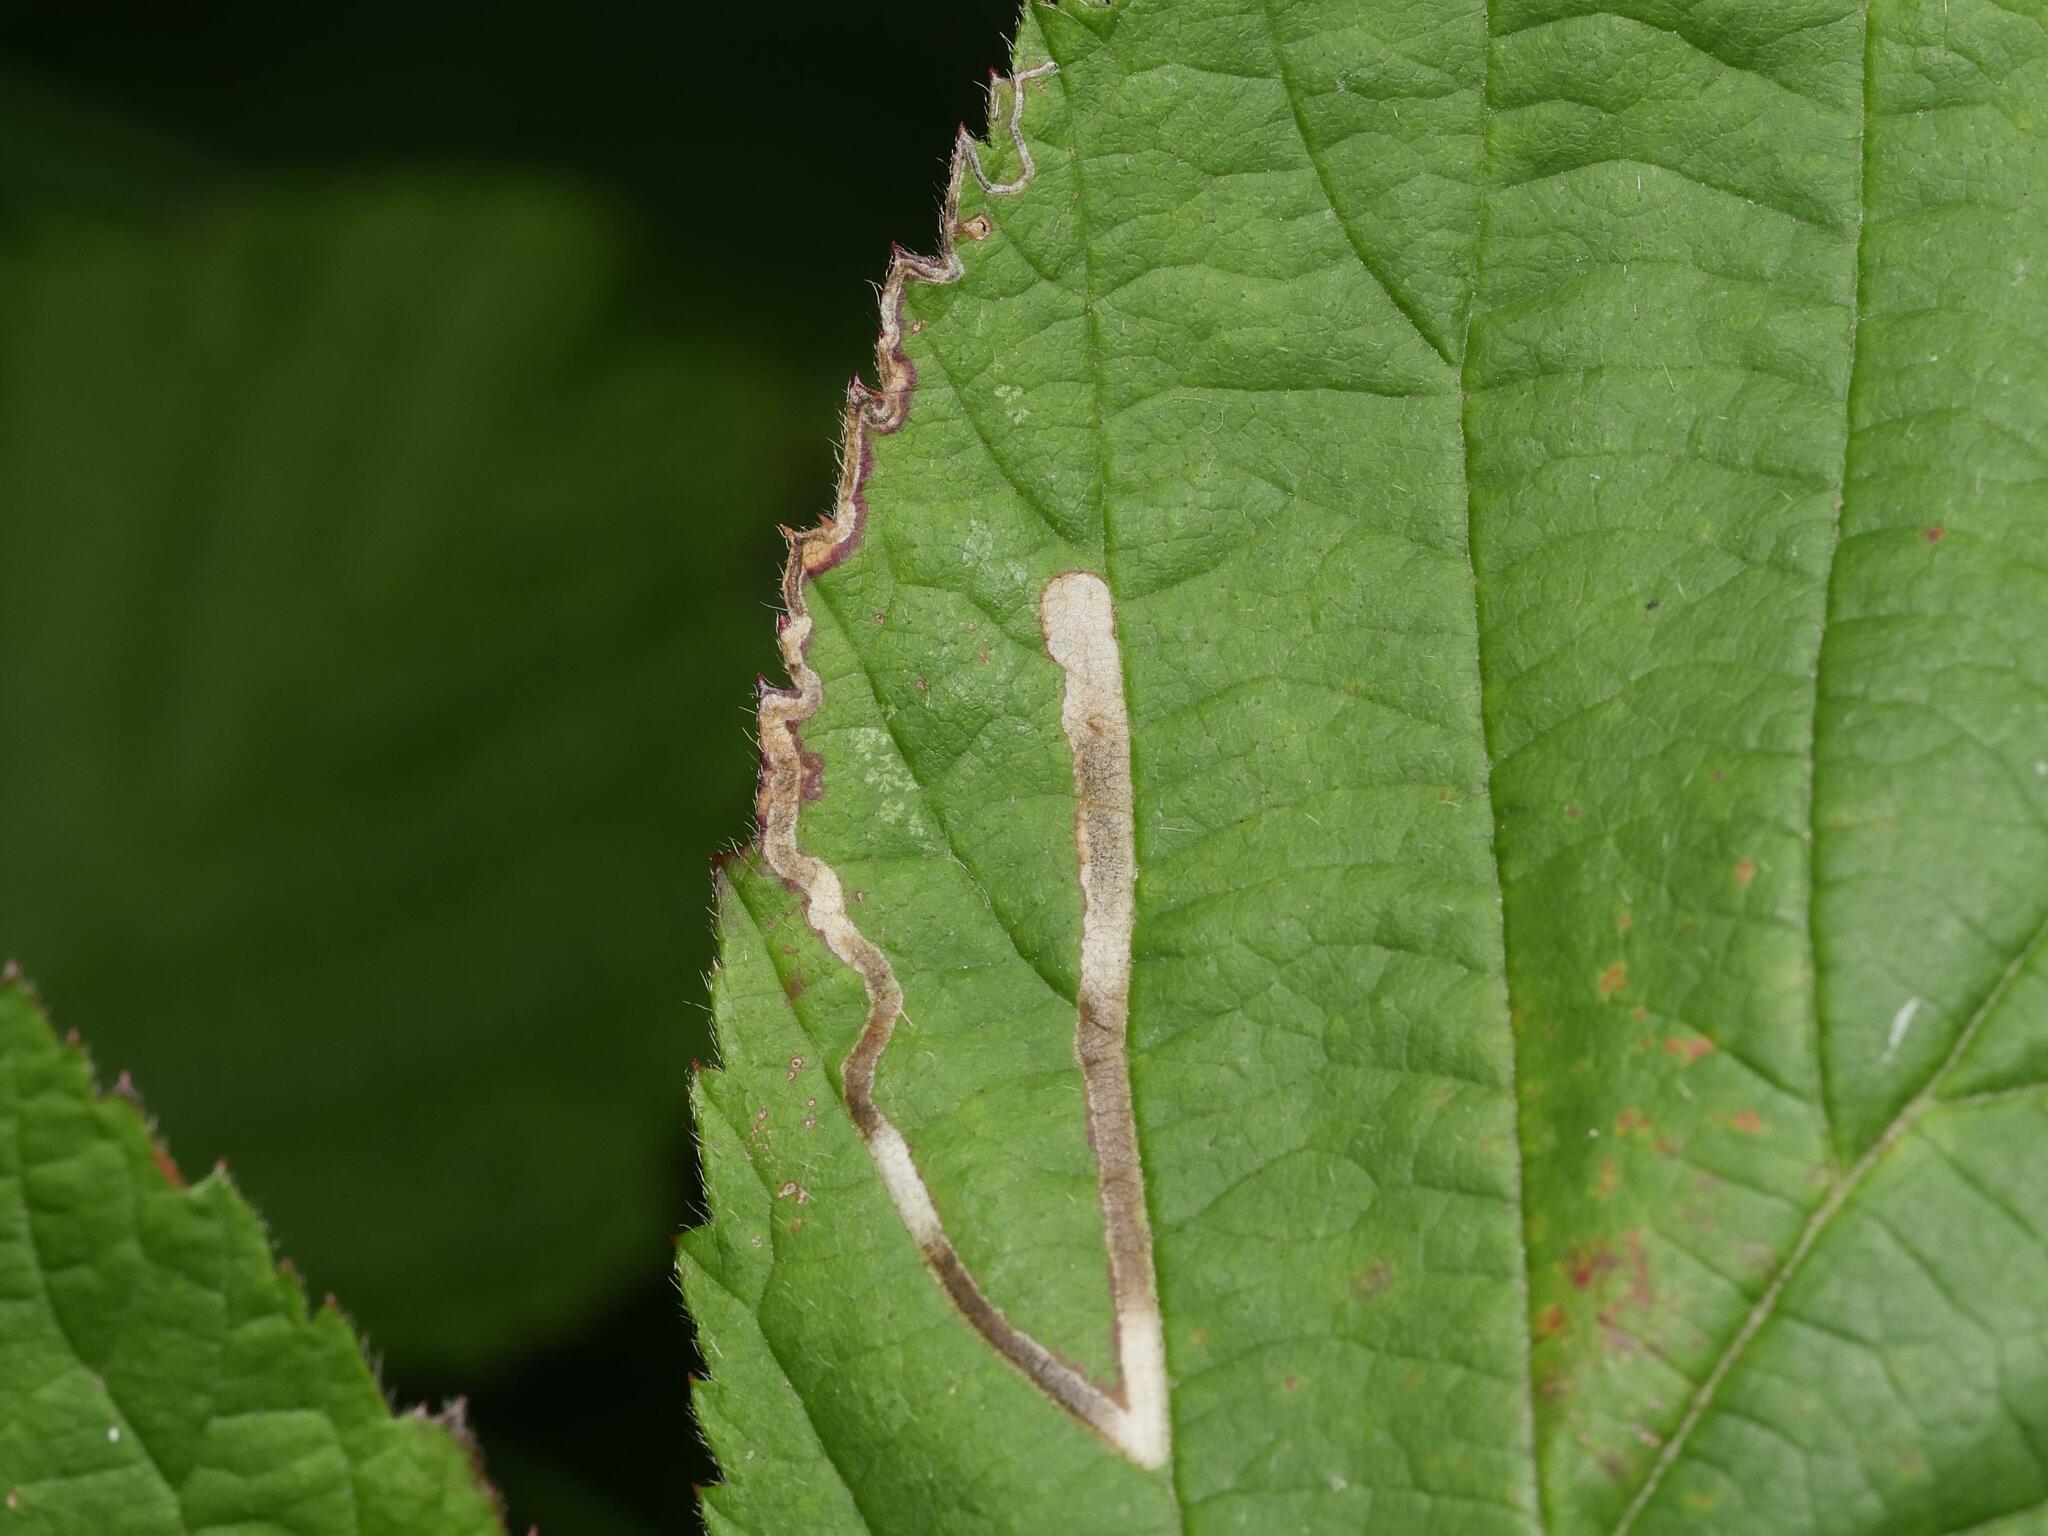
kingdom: Animalia
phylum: Arthropoda
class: Insecta
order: Lepidoptera
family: Nepticulidae
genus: Stigmella
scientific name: Stigmella aurella
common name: Golden pigmy
